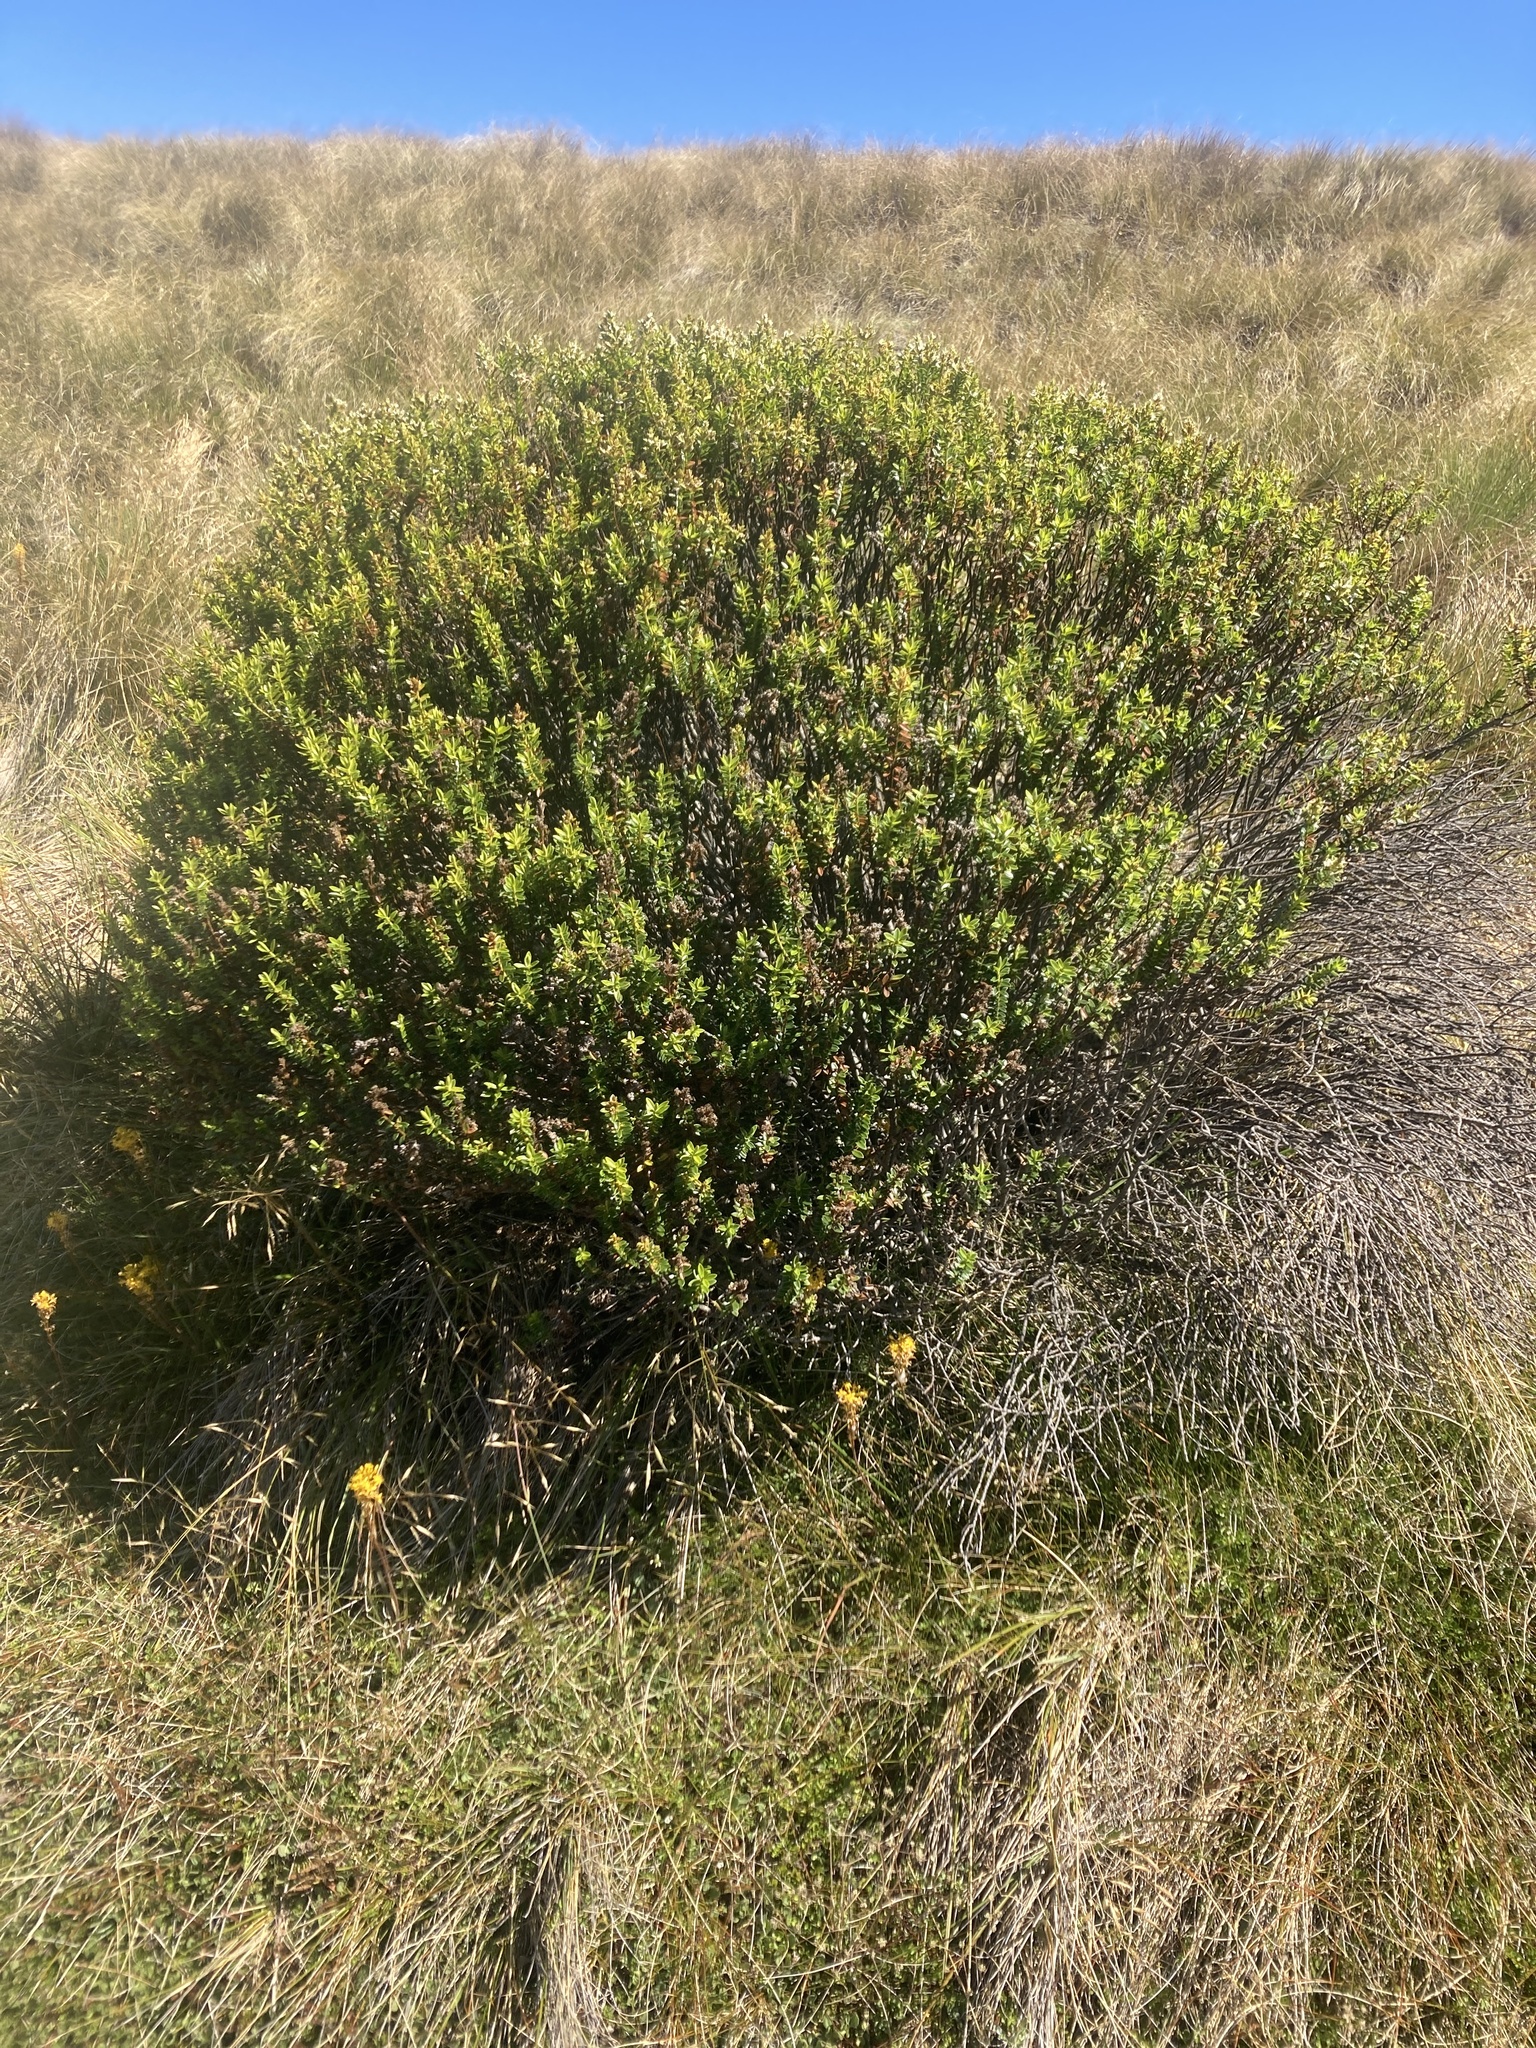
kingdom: Plantae
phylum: Tracheophyta
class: Magnoliopsida
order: Lamiales
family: Plantaginaceae
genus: Veronica
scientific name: Veronica odora
